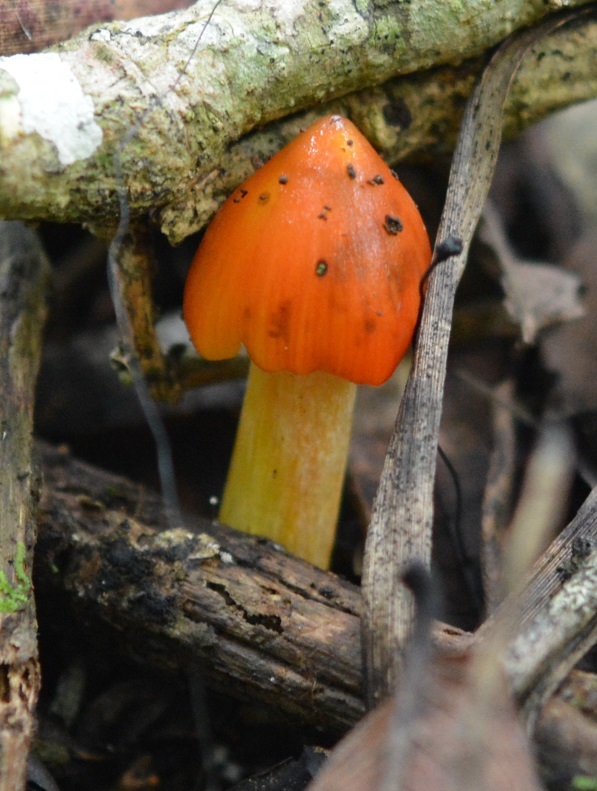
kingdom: Fungi
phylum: Basidiomycota
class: Agaricomycetes
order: Agaricales
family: Hygrophoraceae
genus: Hygrocybe
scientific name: Hygrocybe conica
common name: Blackening wax-cap
